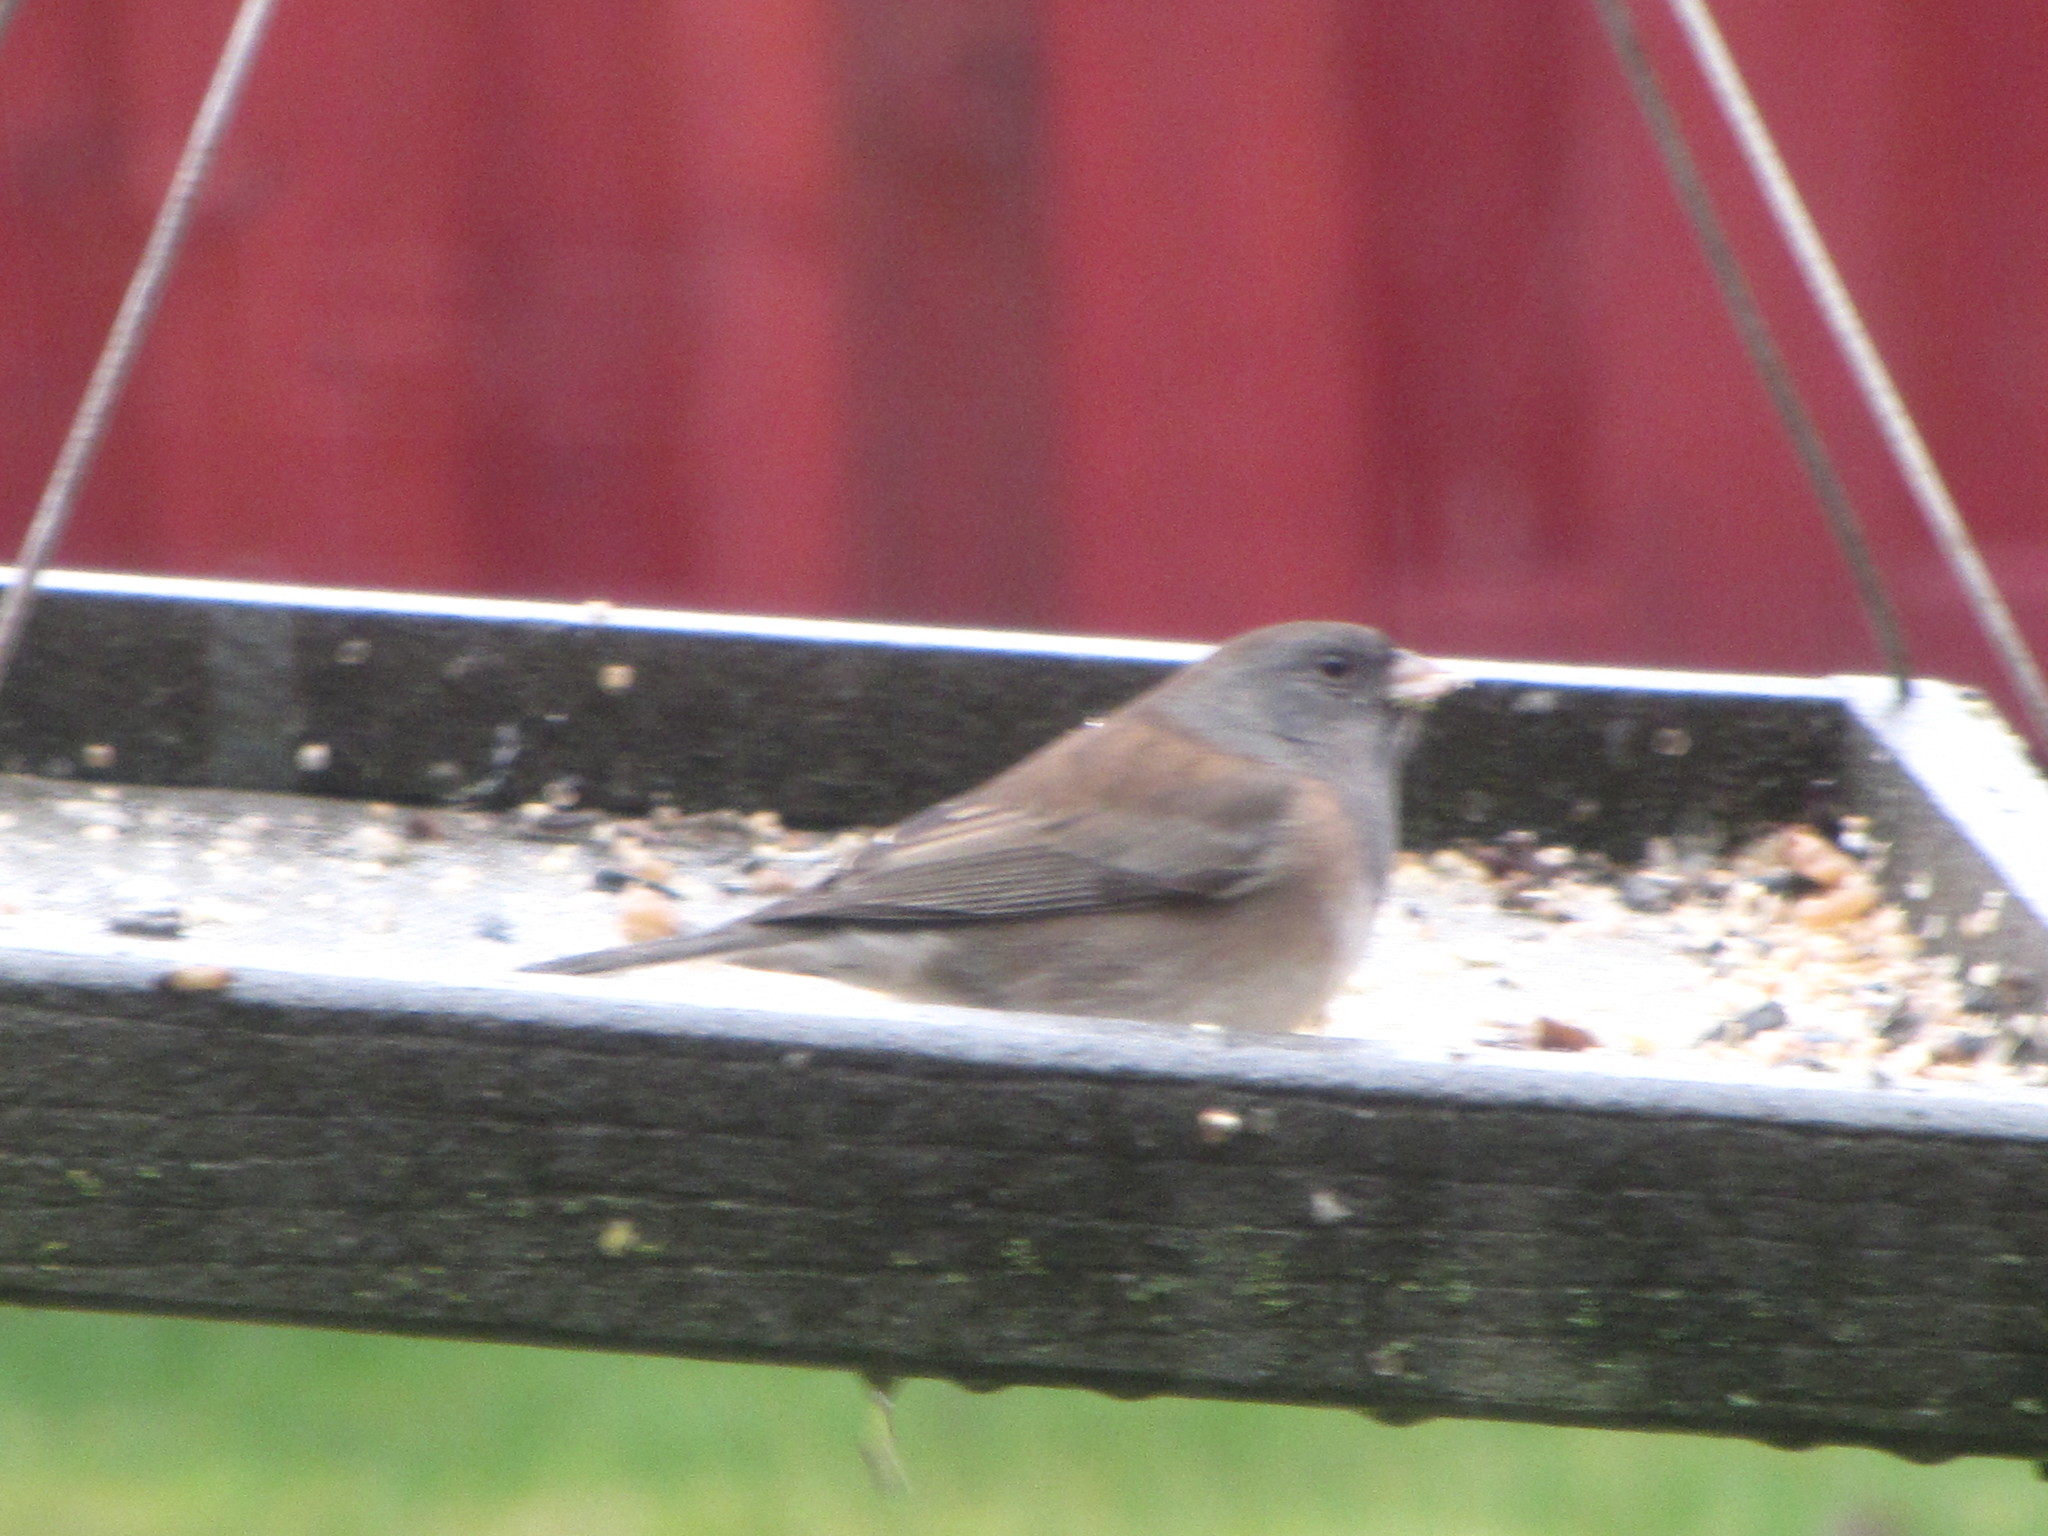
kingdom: Animalia
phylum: Chordata
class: Aves
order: Passeriformes
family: Passerellidae
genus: Junco
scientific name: Junco hyemalis
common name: Dark-eyed junco
